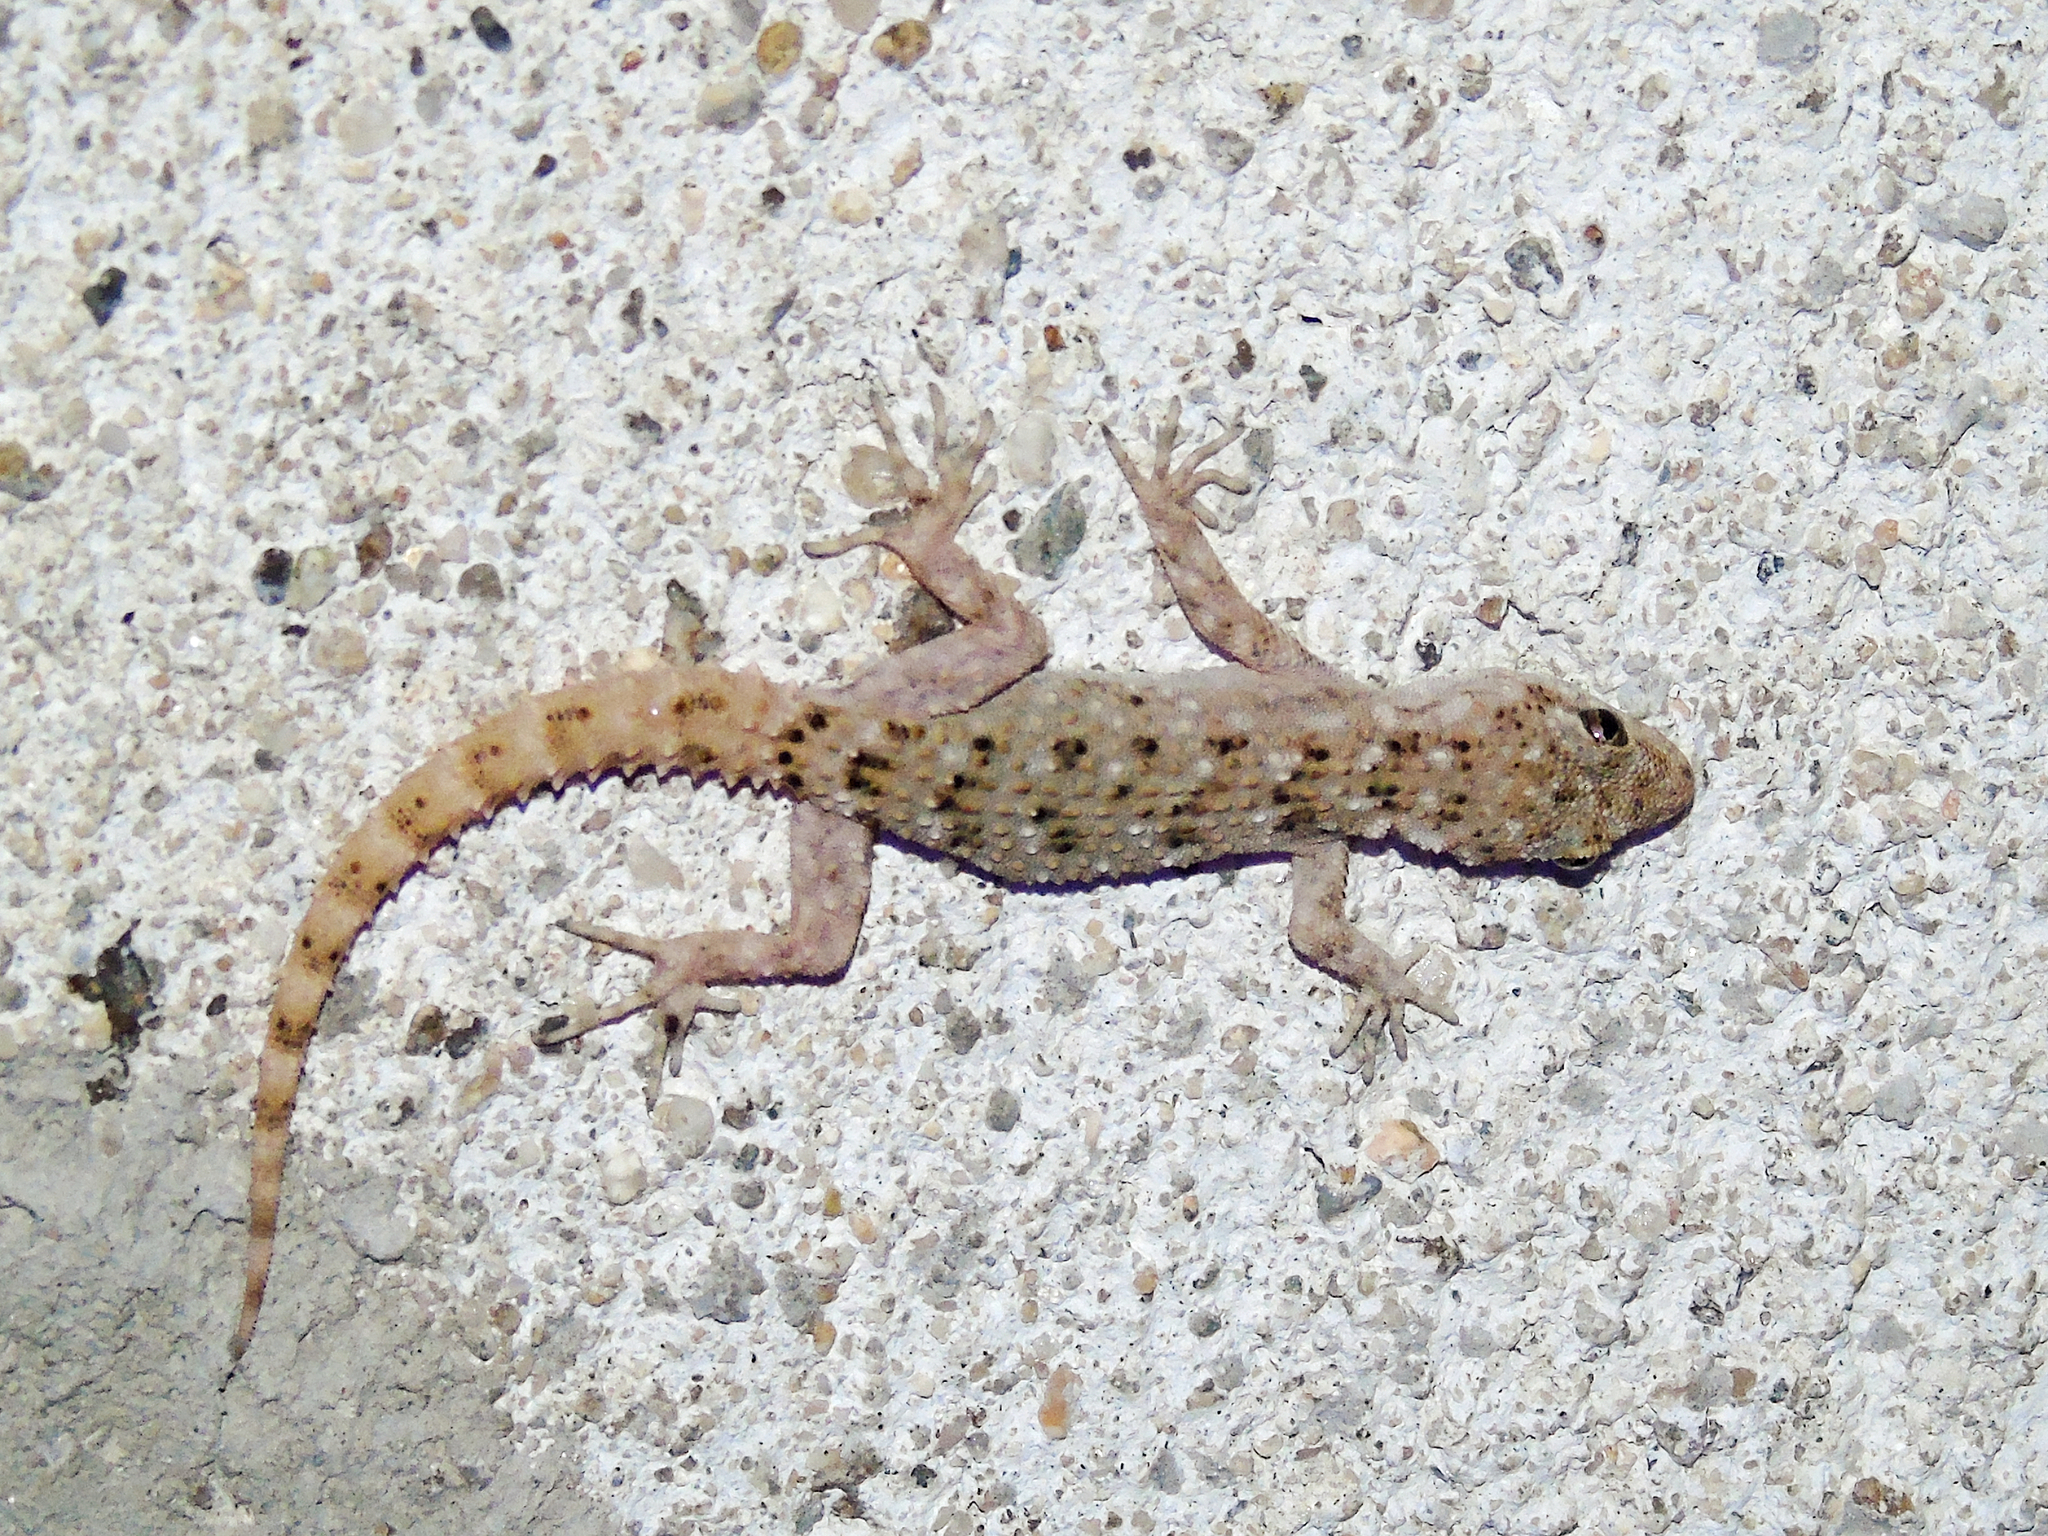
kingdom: Animalia
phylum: Chordata
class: Squamata
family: Gekkonidae
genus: Mediodactylus
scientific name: Mediodactylus kotschyi
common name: Kotschy's gecko
